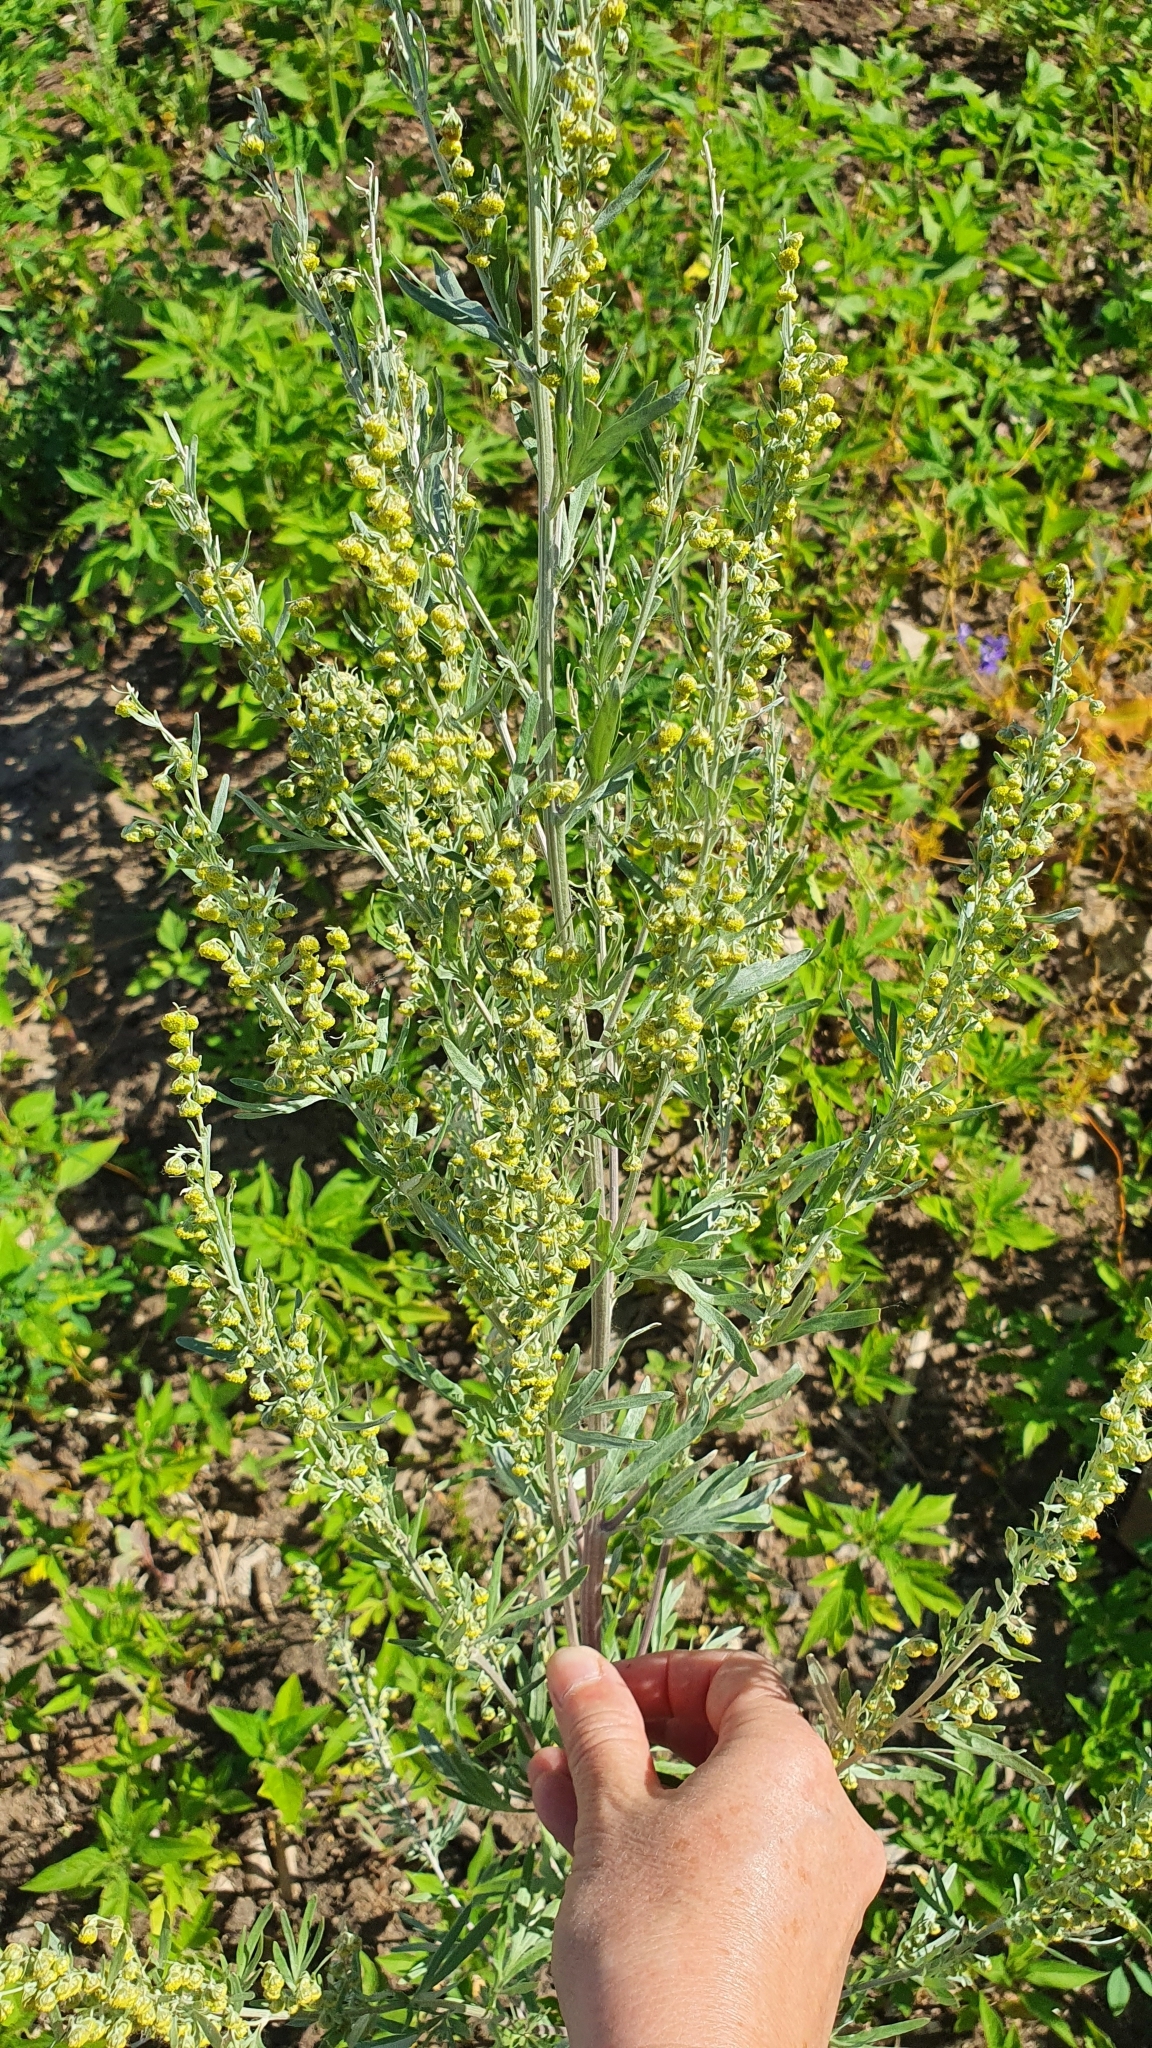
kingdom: Plantae
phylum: Tracheophyta
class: Magnoliopsida
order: Asterales
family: Asteraceae
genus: Artemisia
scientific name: Artemisia absinthium
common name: Wormwood
